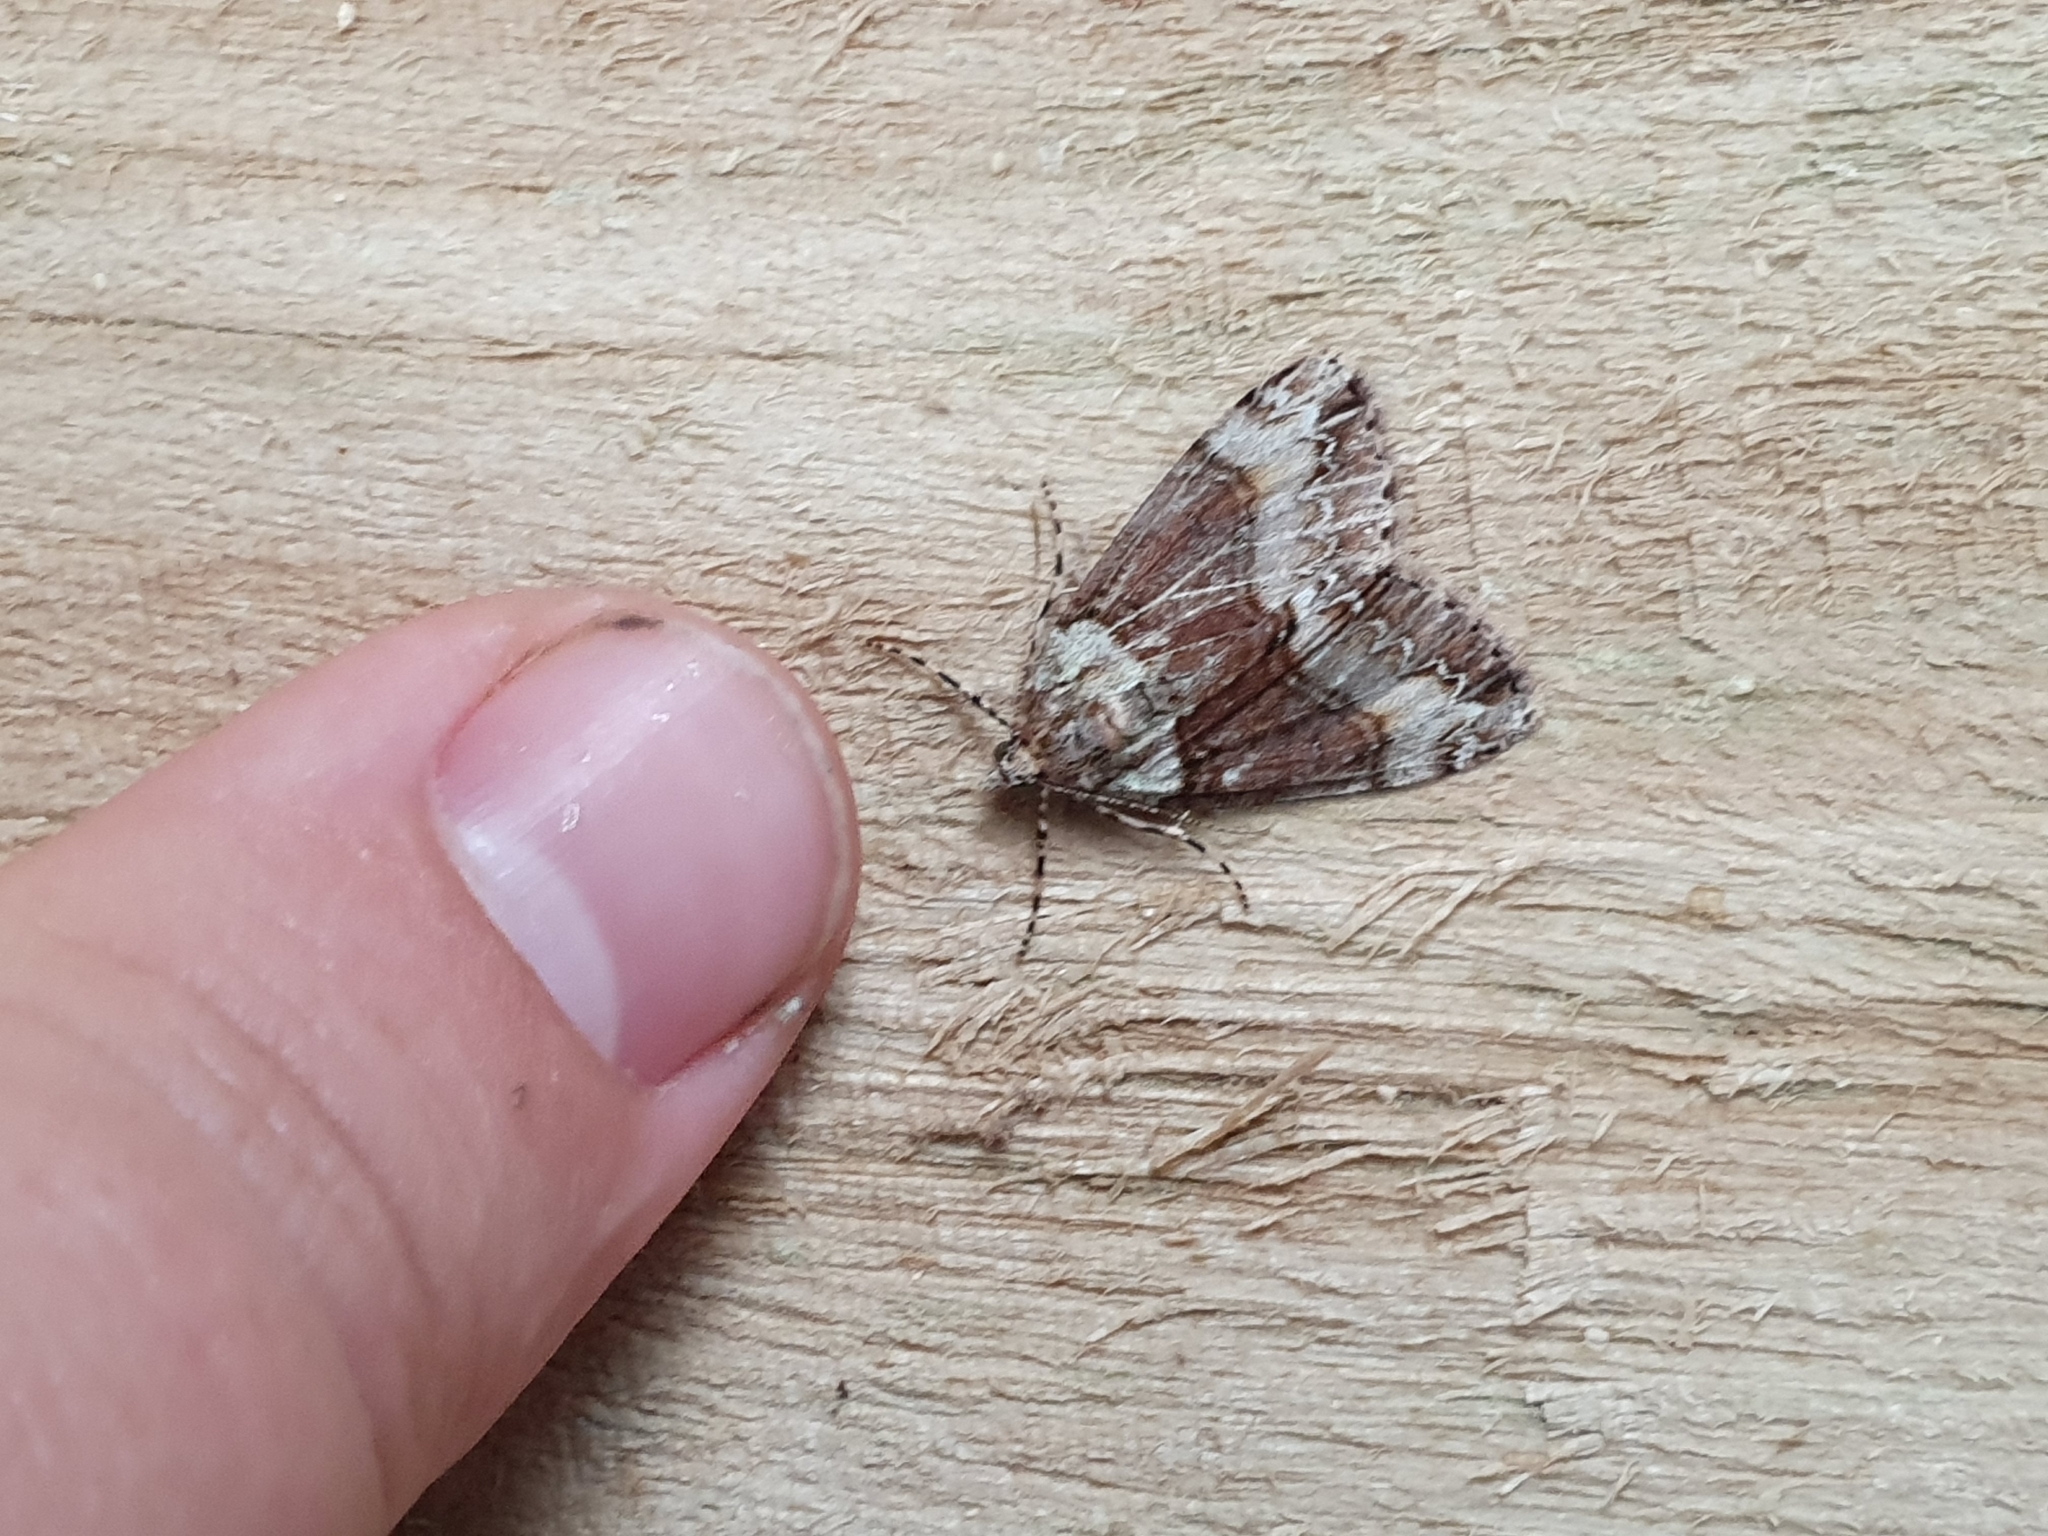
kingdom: Animalia
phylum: Arthropoda
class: Insecta
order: Lepidoptera
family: Geometridae
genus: Pseudocoremia
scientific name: Pseudocoremia suavis
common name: Common forest looper
